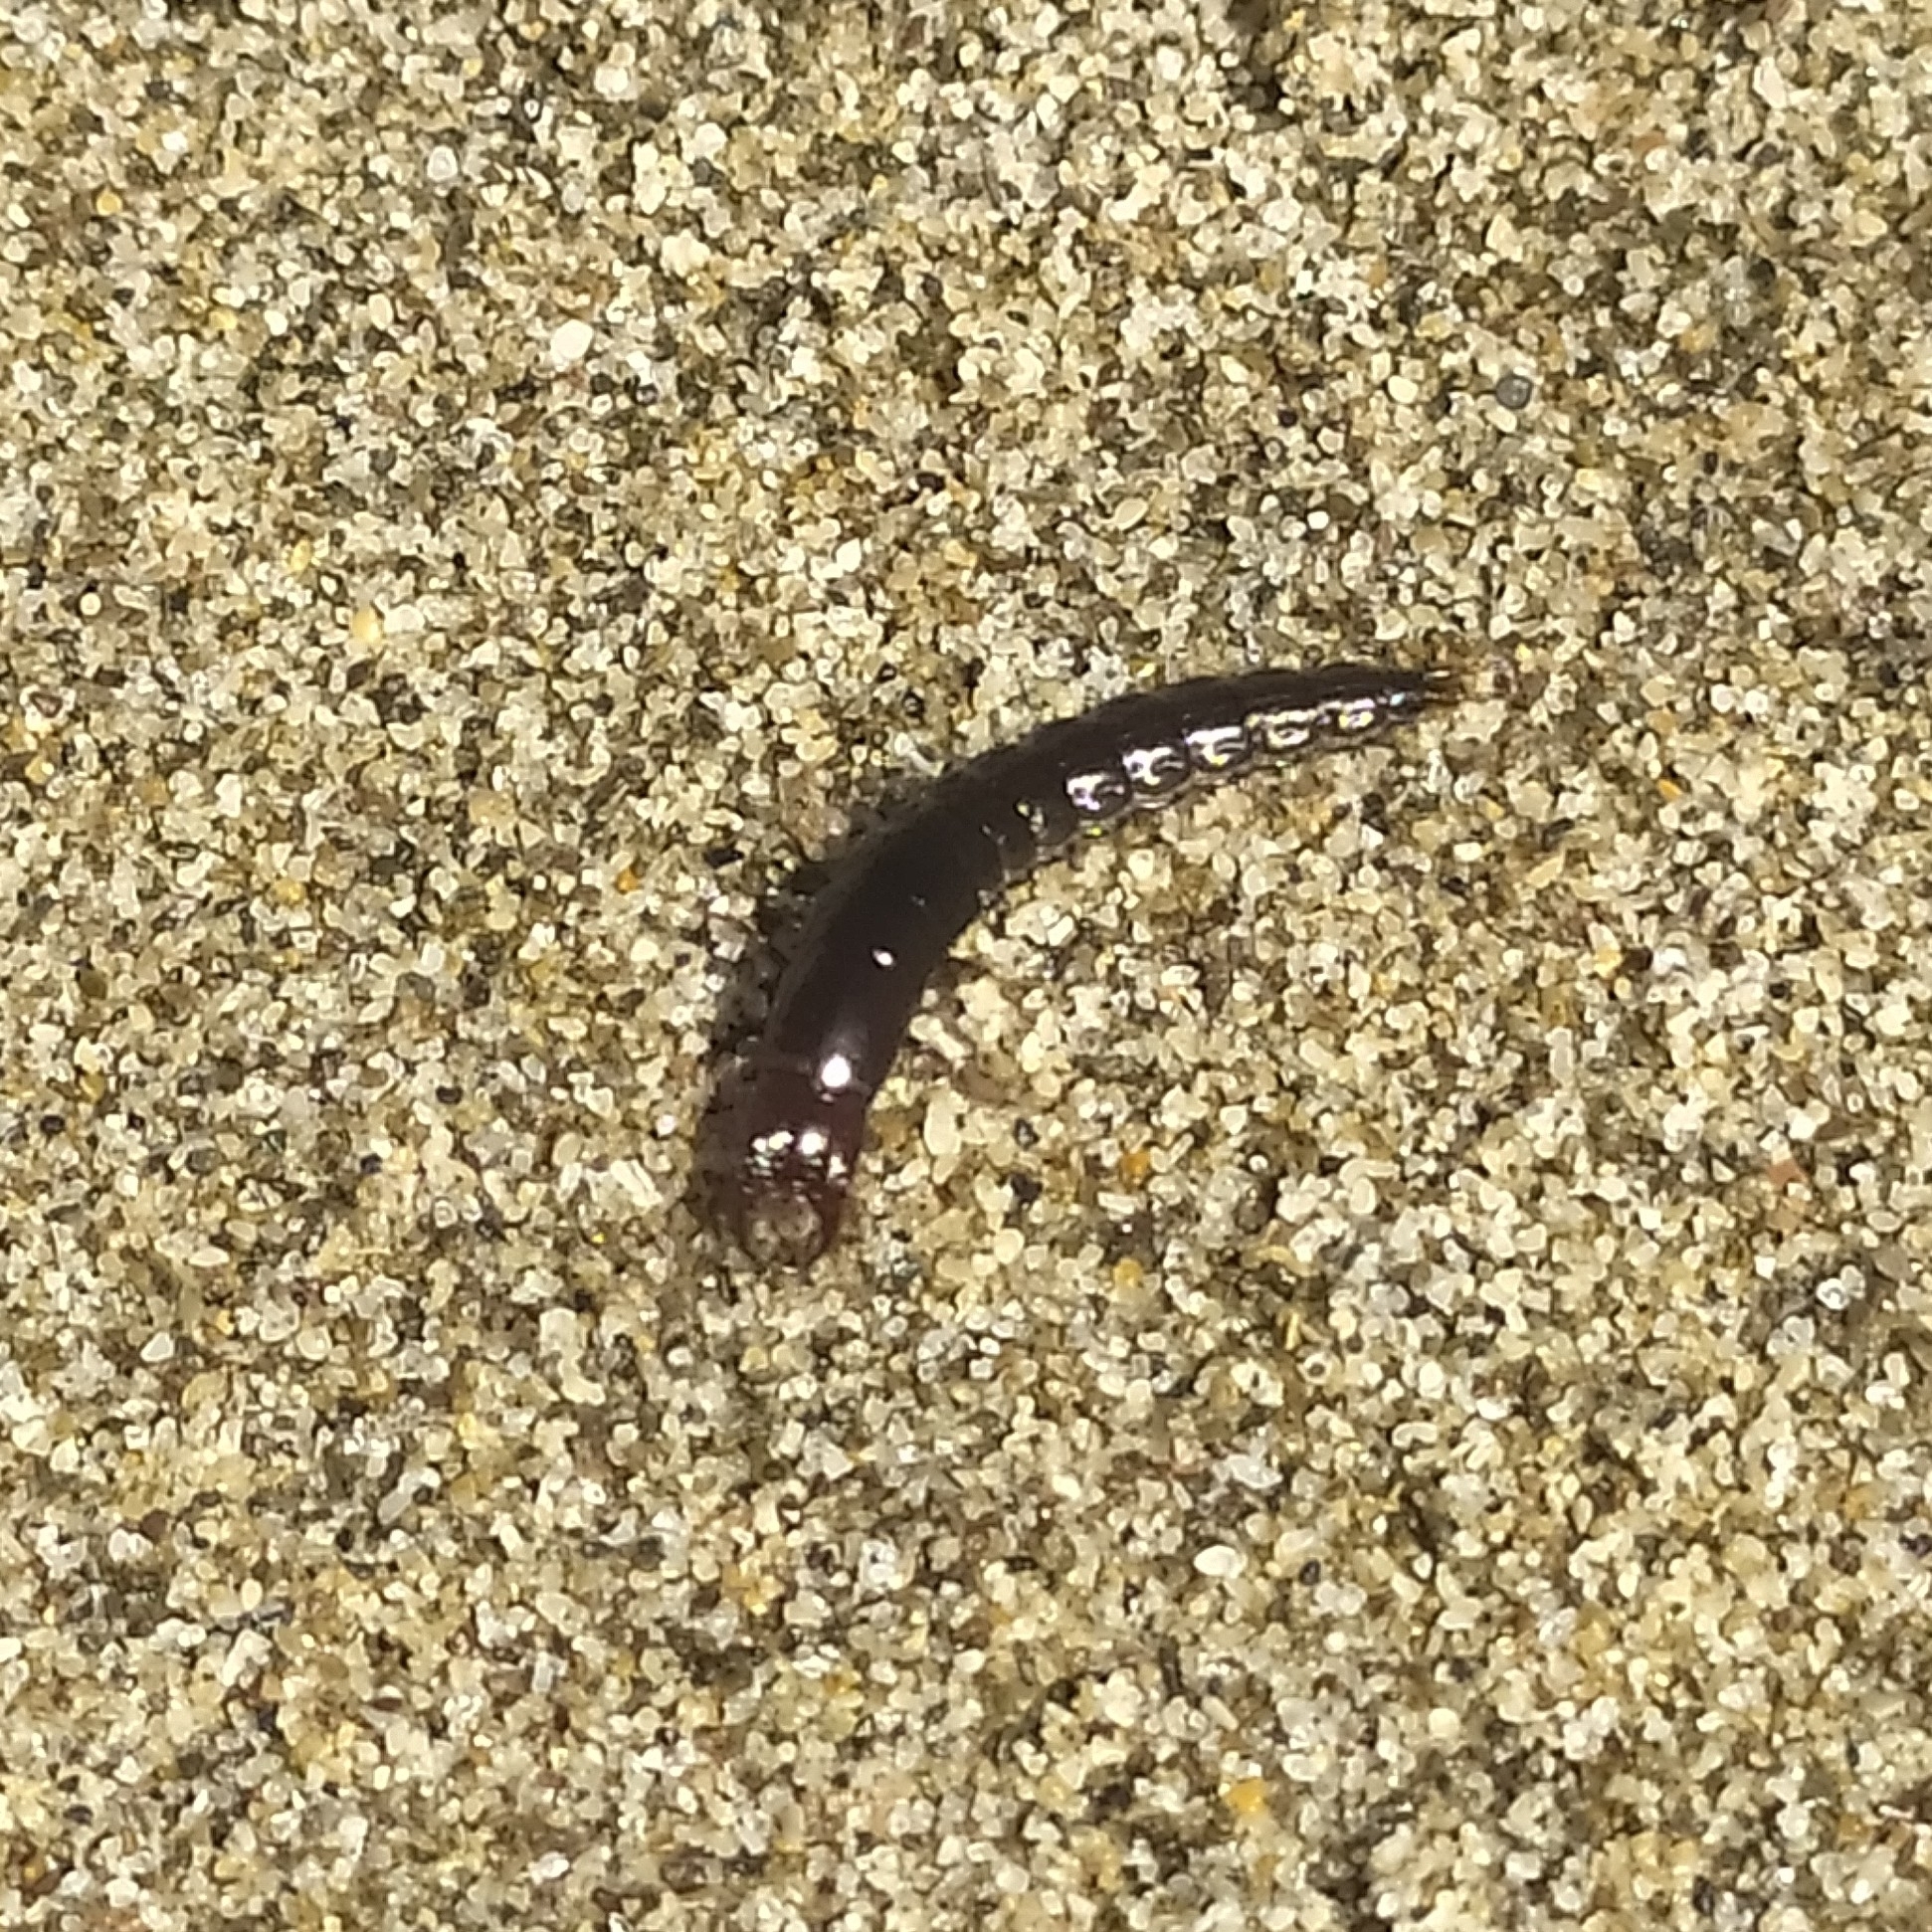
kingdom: Animalia
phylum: Arthropoda
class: Insecta
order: Coleoptera
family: Carabidae
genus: Scarites
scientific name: Scarites buparius
